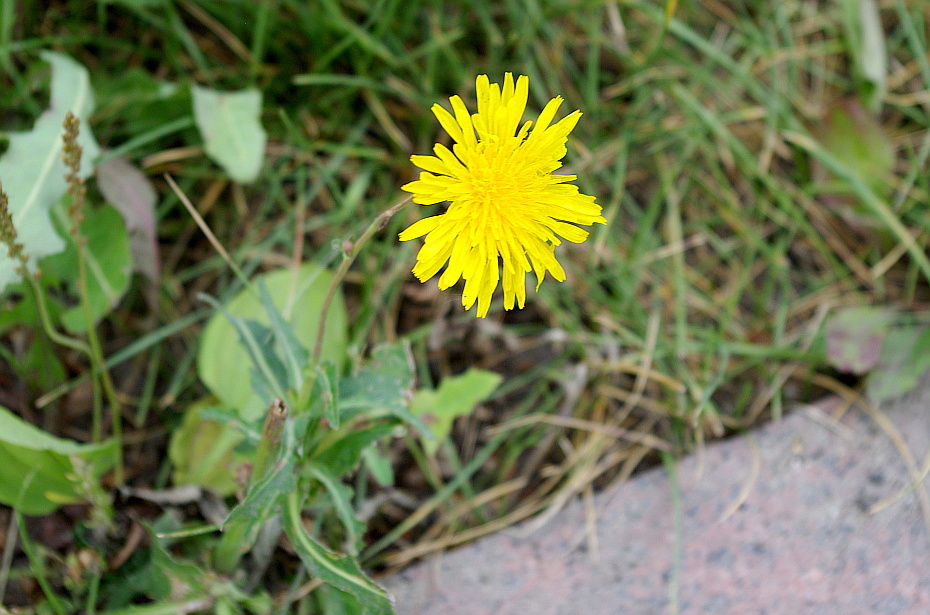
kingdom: Plantae
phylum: Tracheophyta
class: Magnoliopsida
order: Asterales
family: Asteraceae
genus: Sonchus
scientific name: Sonchus arvensis
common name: Perennial sow-thistle
